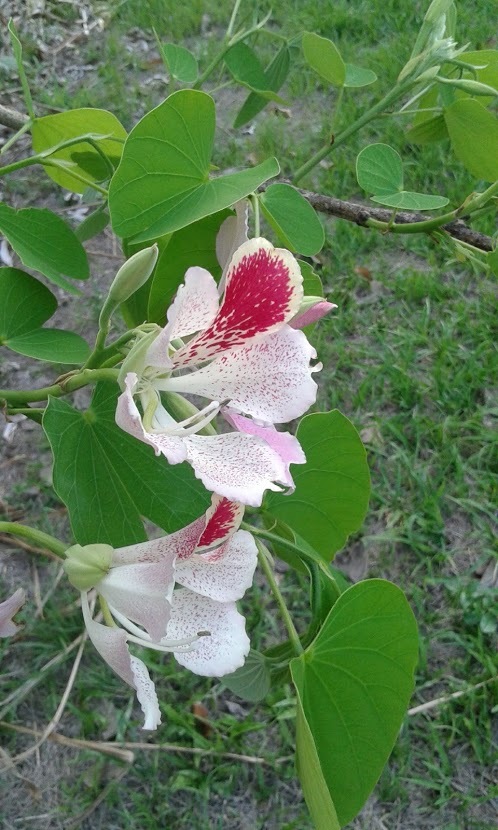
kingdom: Plantae
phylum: Tracheophyta
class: Magnoliopsida
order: Fabales
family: Fabaceae
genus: Bauhinia
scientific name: Bauhinia monandra
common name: Napoleon's plume
